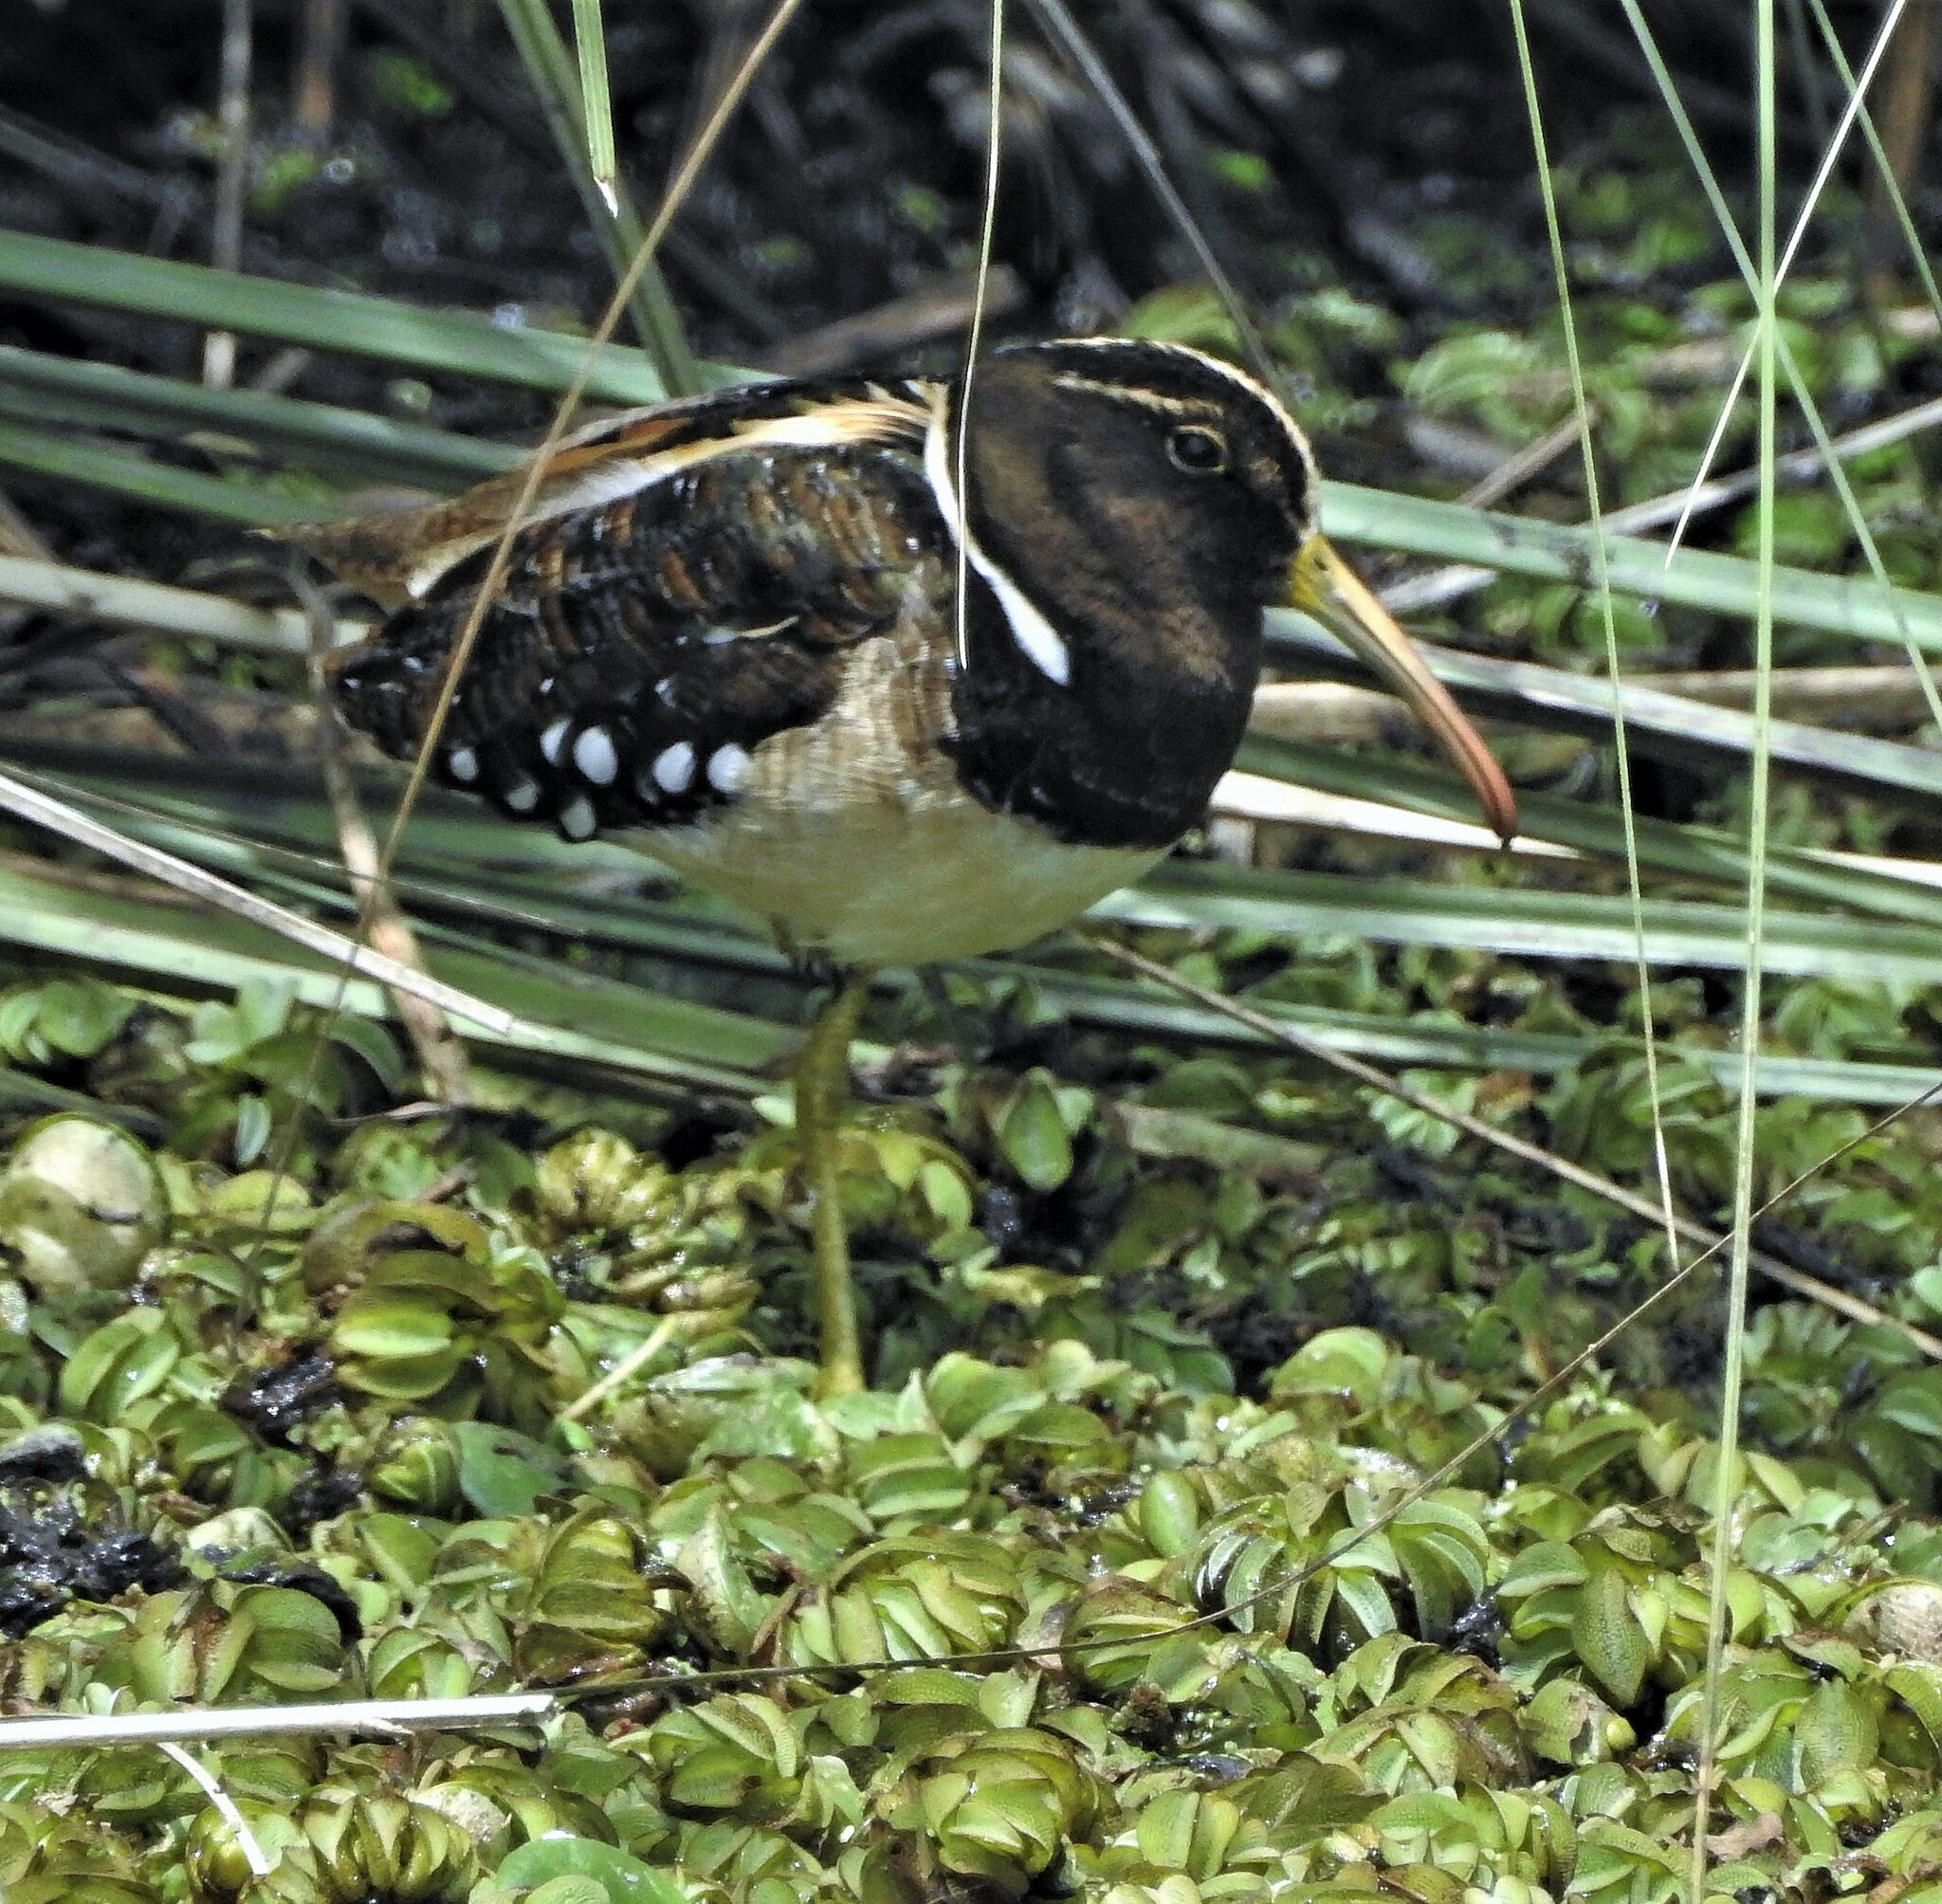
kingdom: Animalia
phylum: Chordata
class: Aves
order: Charadriiformes
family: Rostratulidae
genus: Nycticryphes
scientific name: Nycticryphes semicollaris
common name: South american painted-snipe
